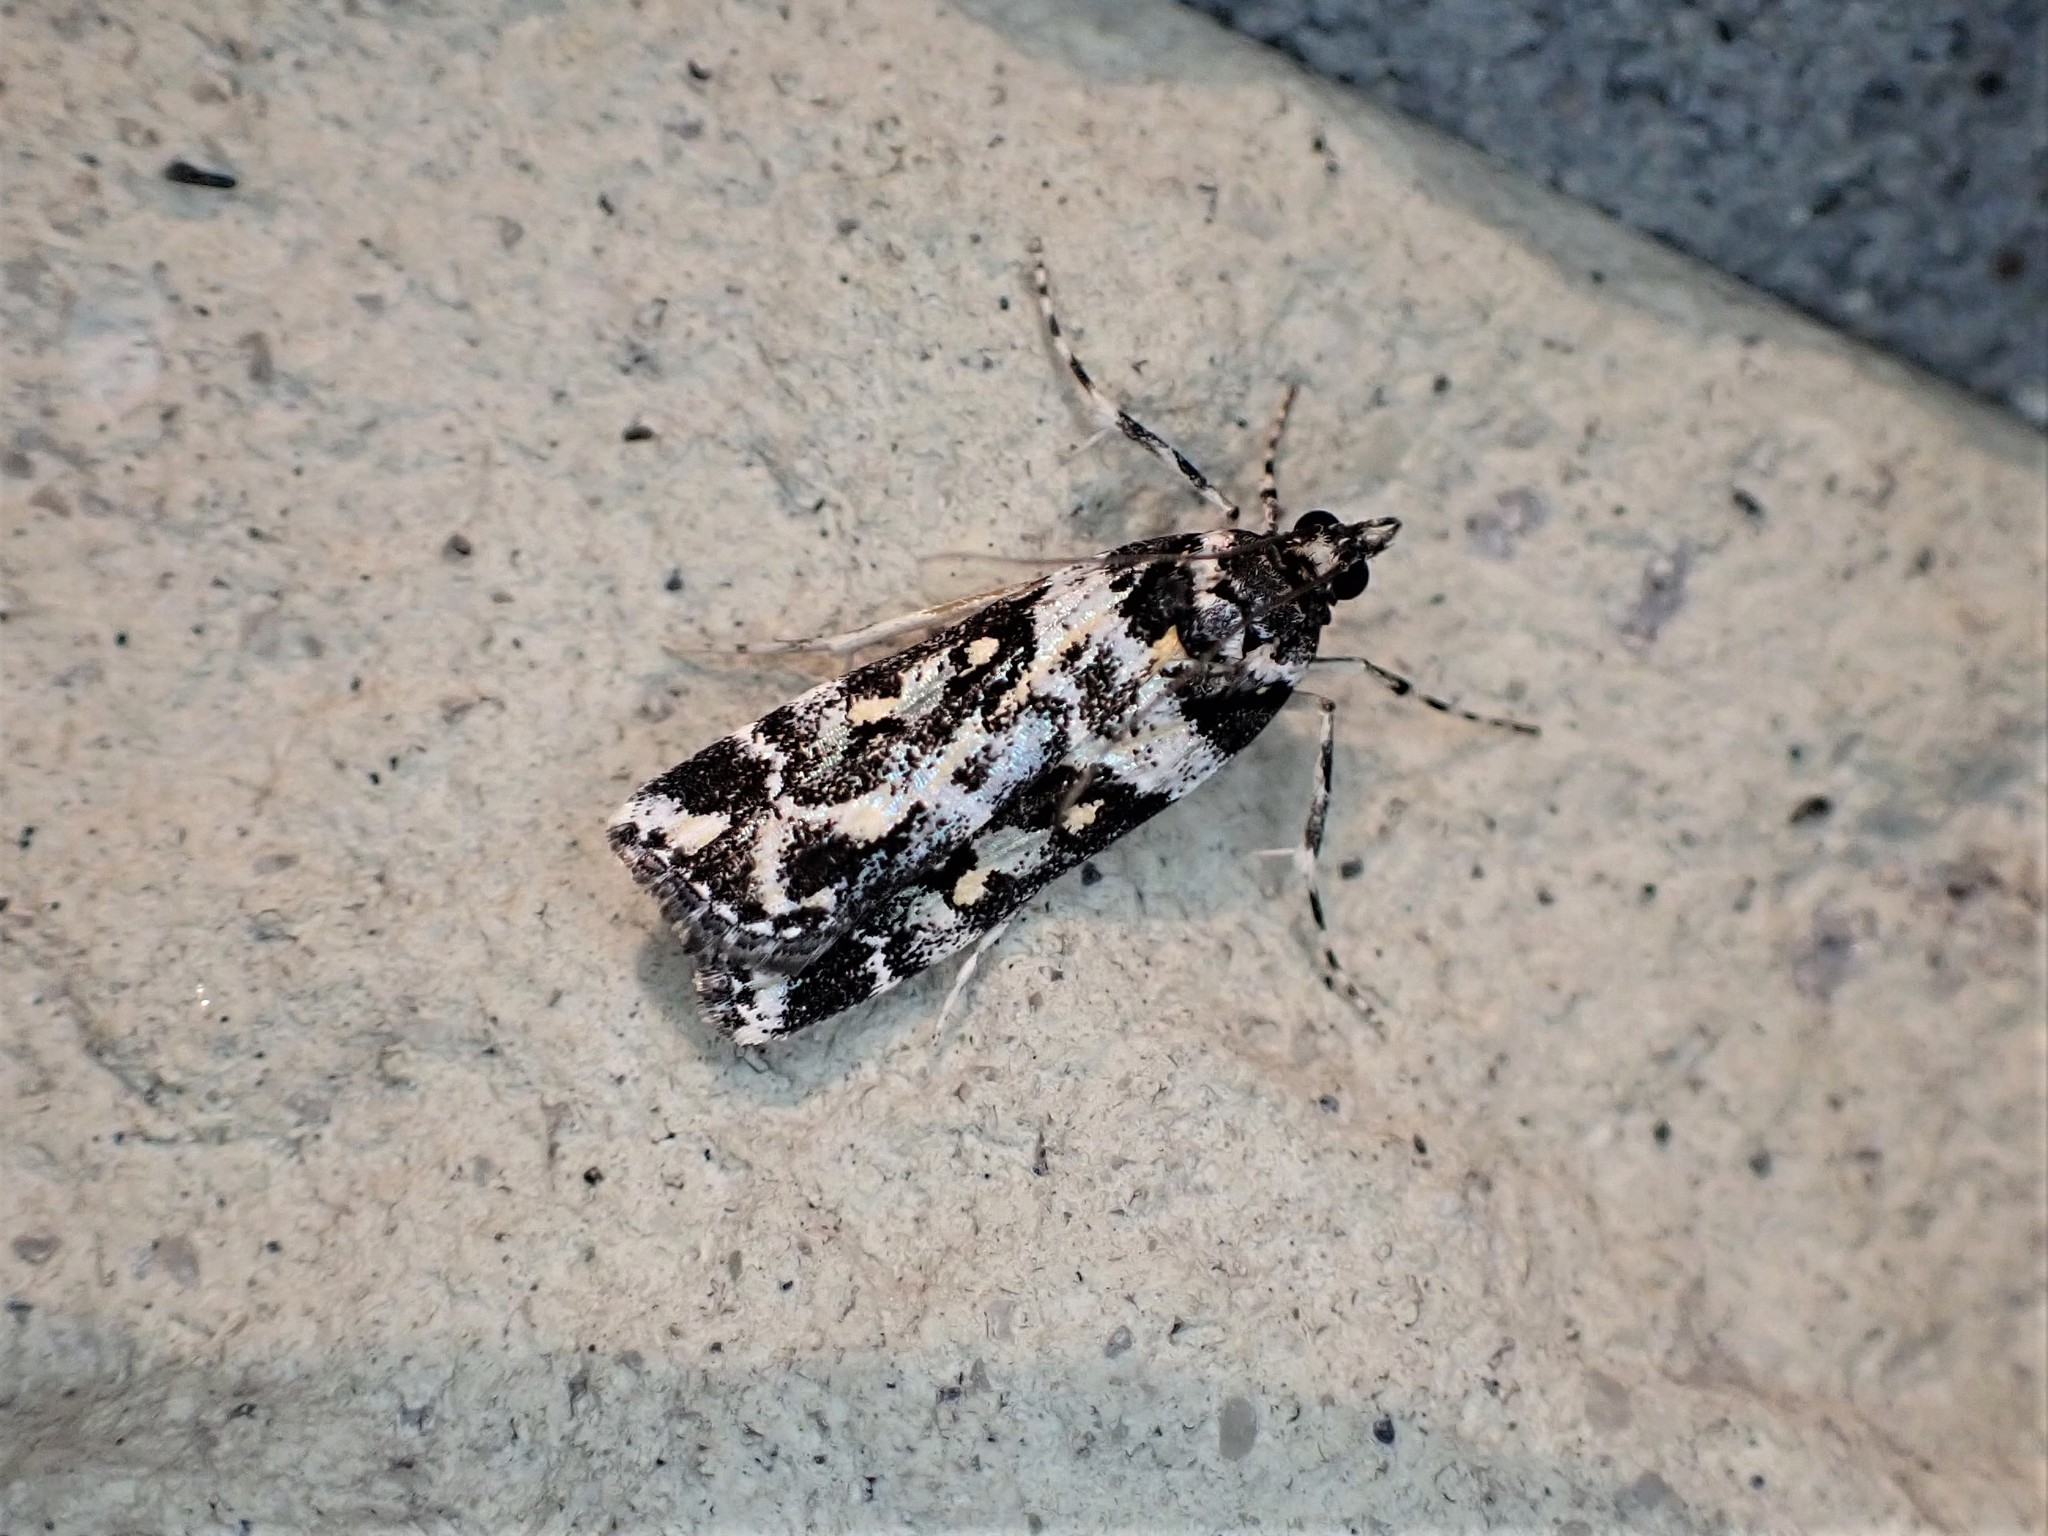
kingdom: Animalia
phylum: Arthropoda
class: Insecta
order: Lepidoptera
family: Crambidae
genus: Eudonia
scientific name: Eudonia diphtheralis
